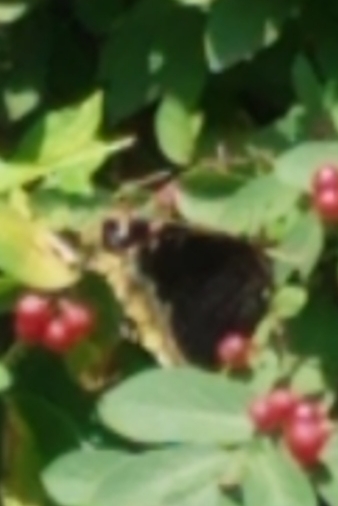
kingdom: Animalia
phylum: Arthropoda
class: Insecta
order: Lepidoptera
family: Nymphalidae
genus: Nymphalis
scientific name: Nymphalis antiopa
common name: Camberwell beauty
